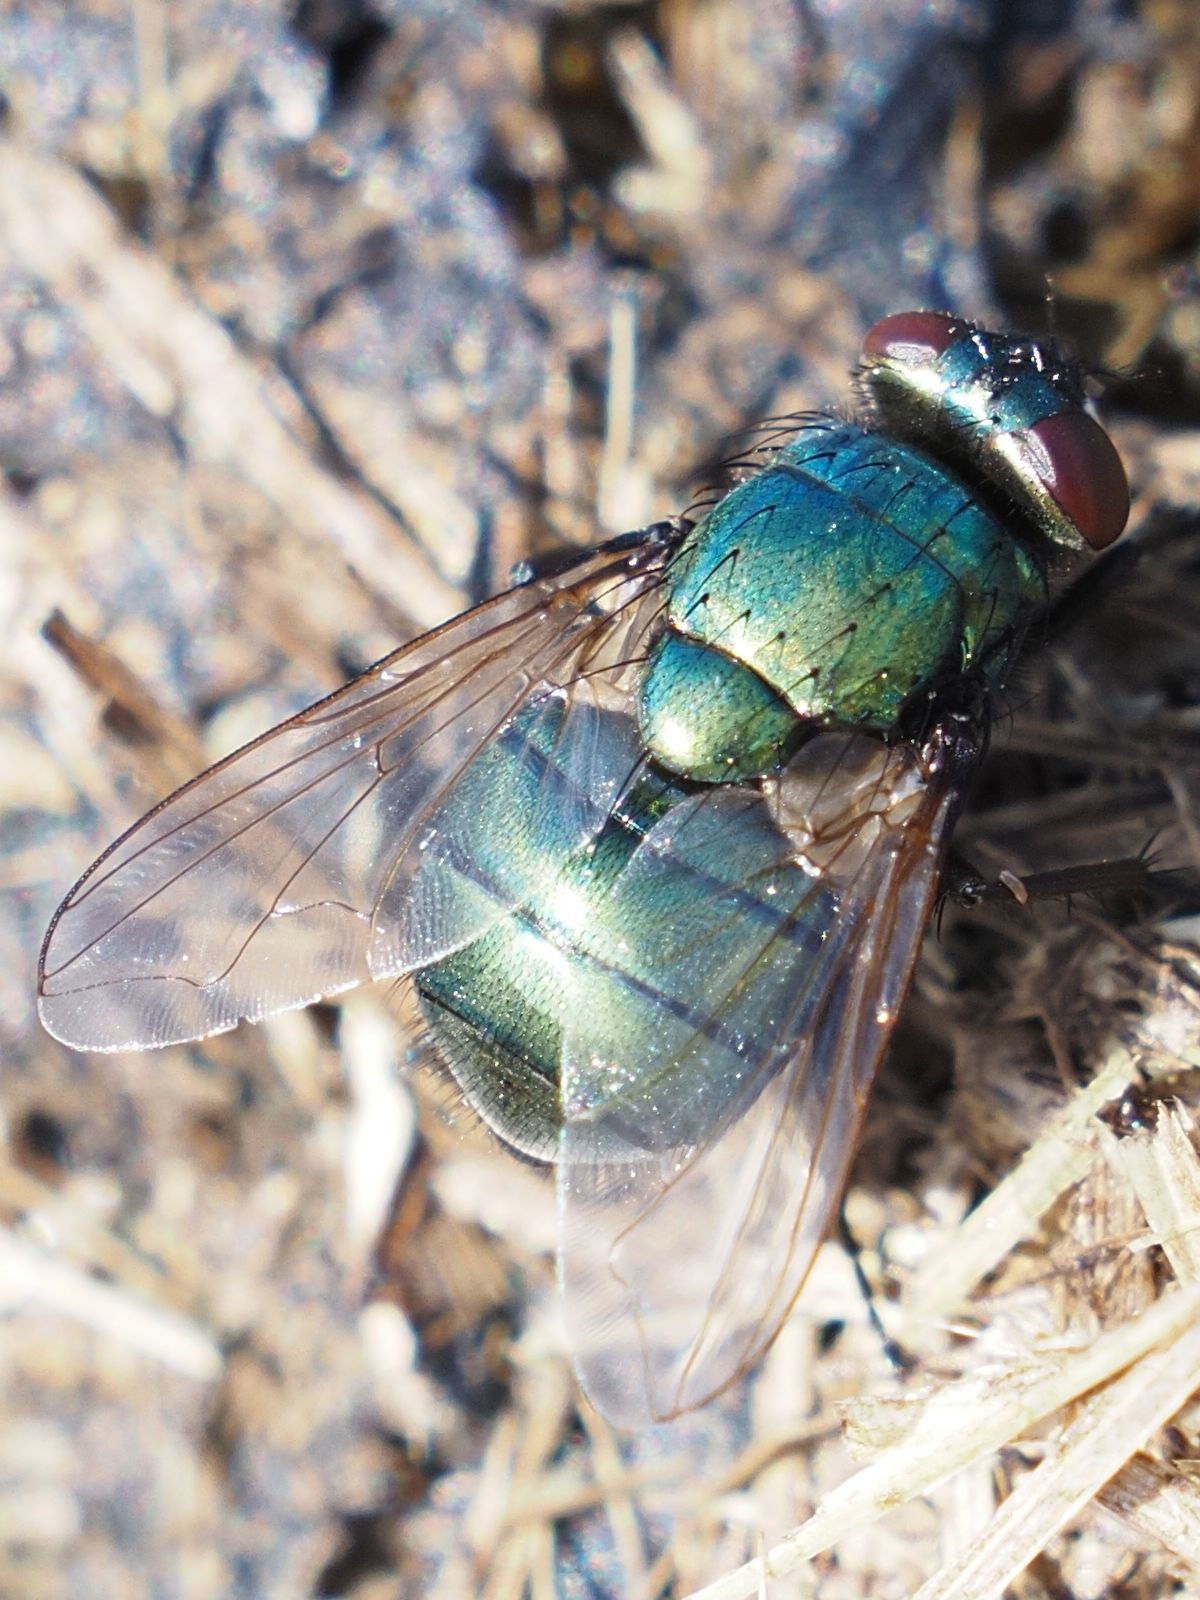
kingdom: Animalia
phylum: Arthropoda
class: Insecta
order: Diptera
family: Muscidae
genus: Neomyia
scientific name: Neomyia cornicina
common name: House fly
